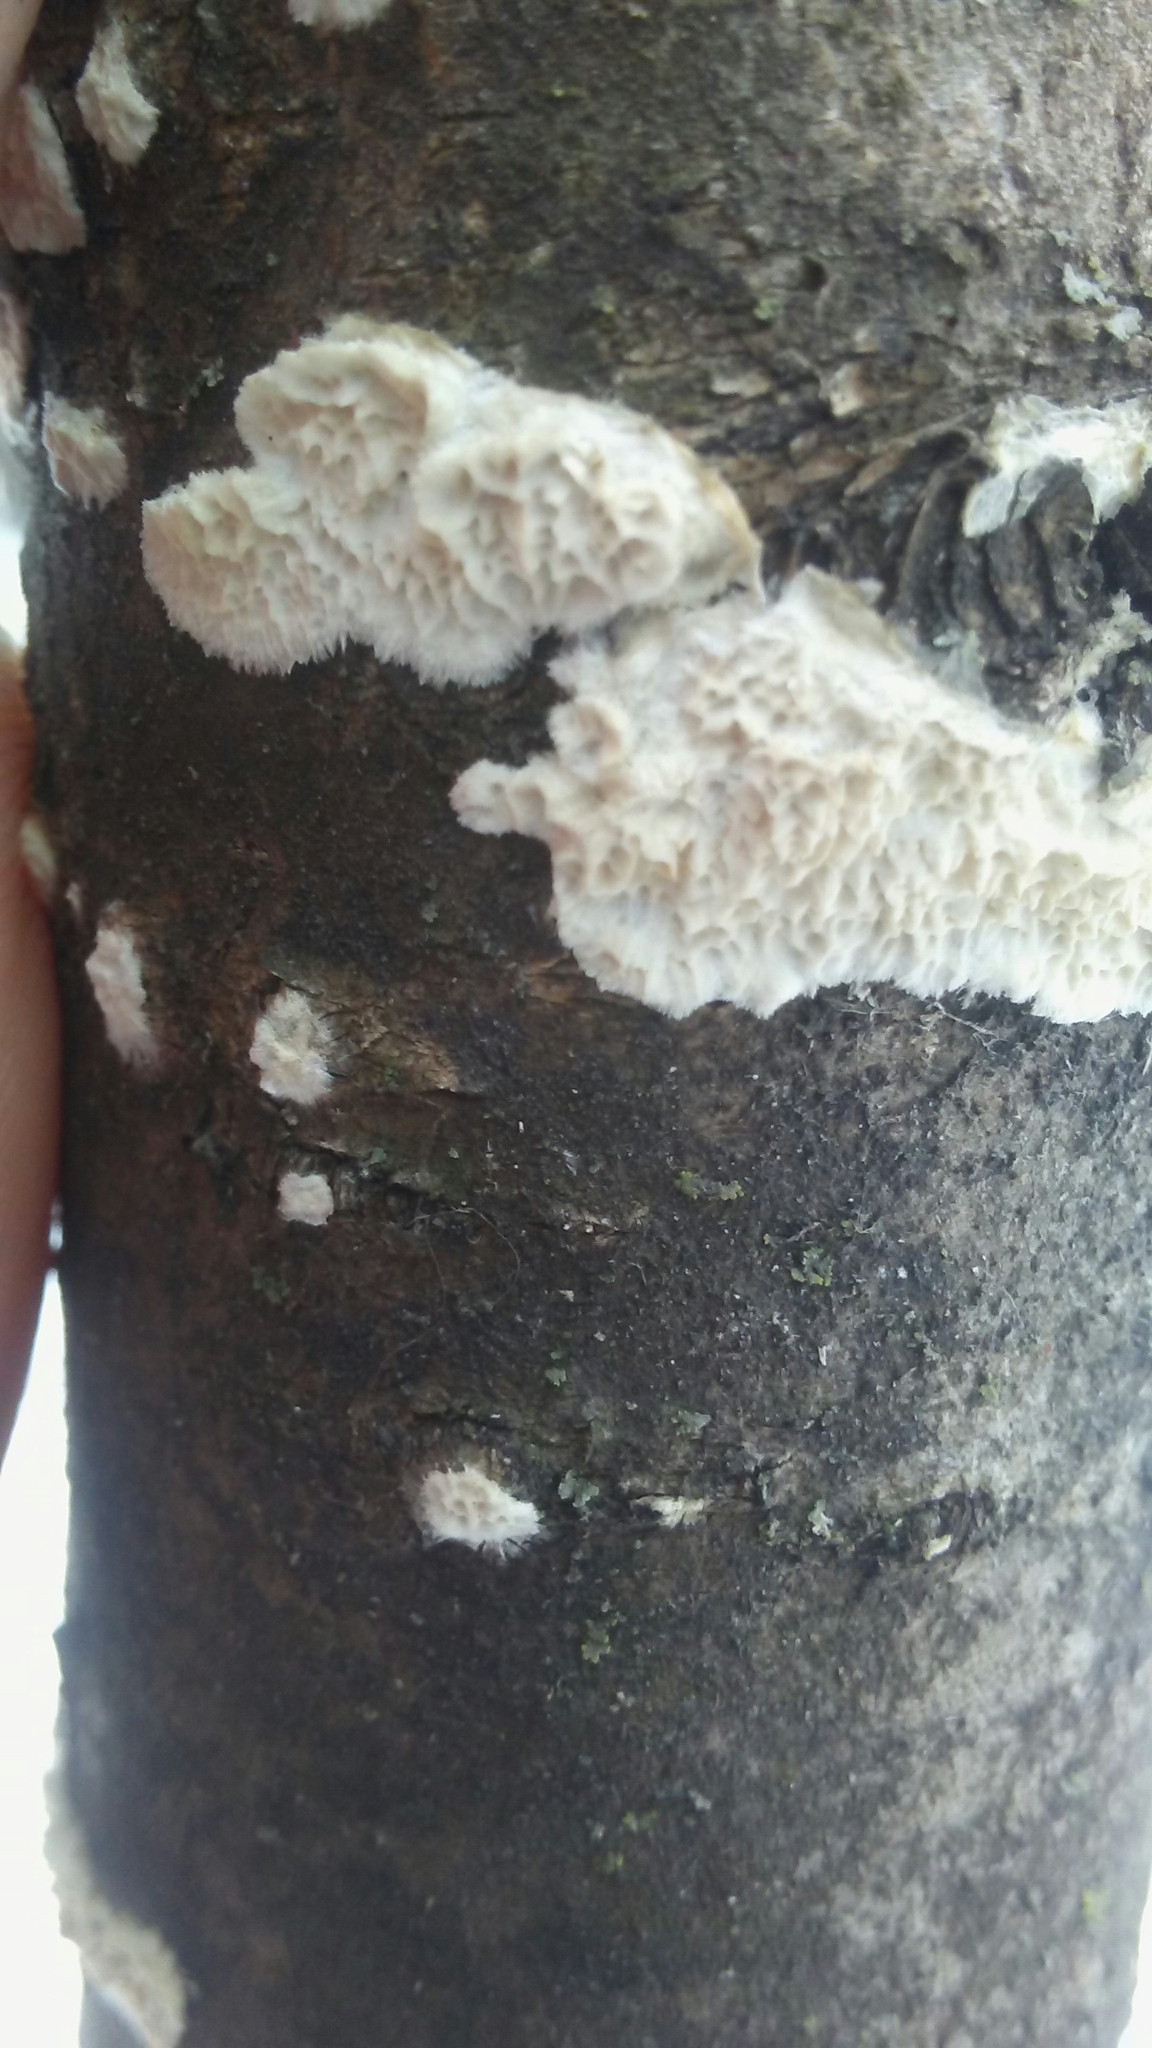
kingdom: Fungi
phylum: Basidiomycota
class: Agaricomycetes
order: Polyporales
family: Irpicaceae
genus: Irpex
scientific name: Irpex lacteus
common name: Milk-white toothed polypore
